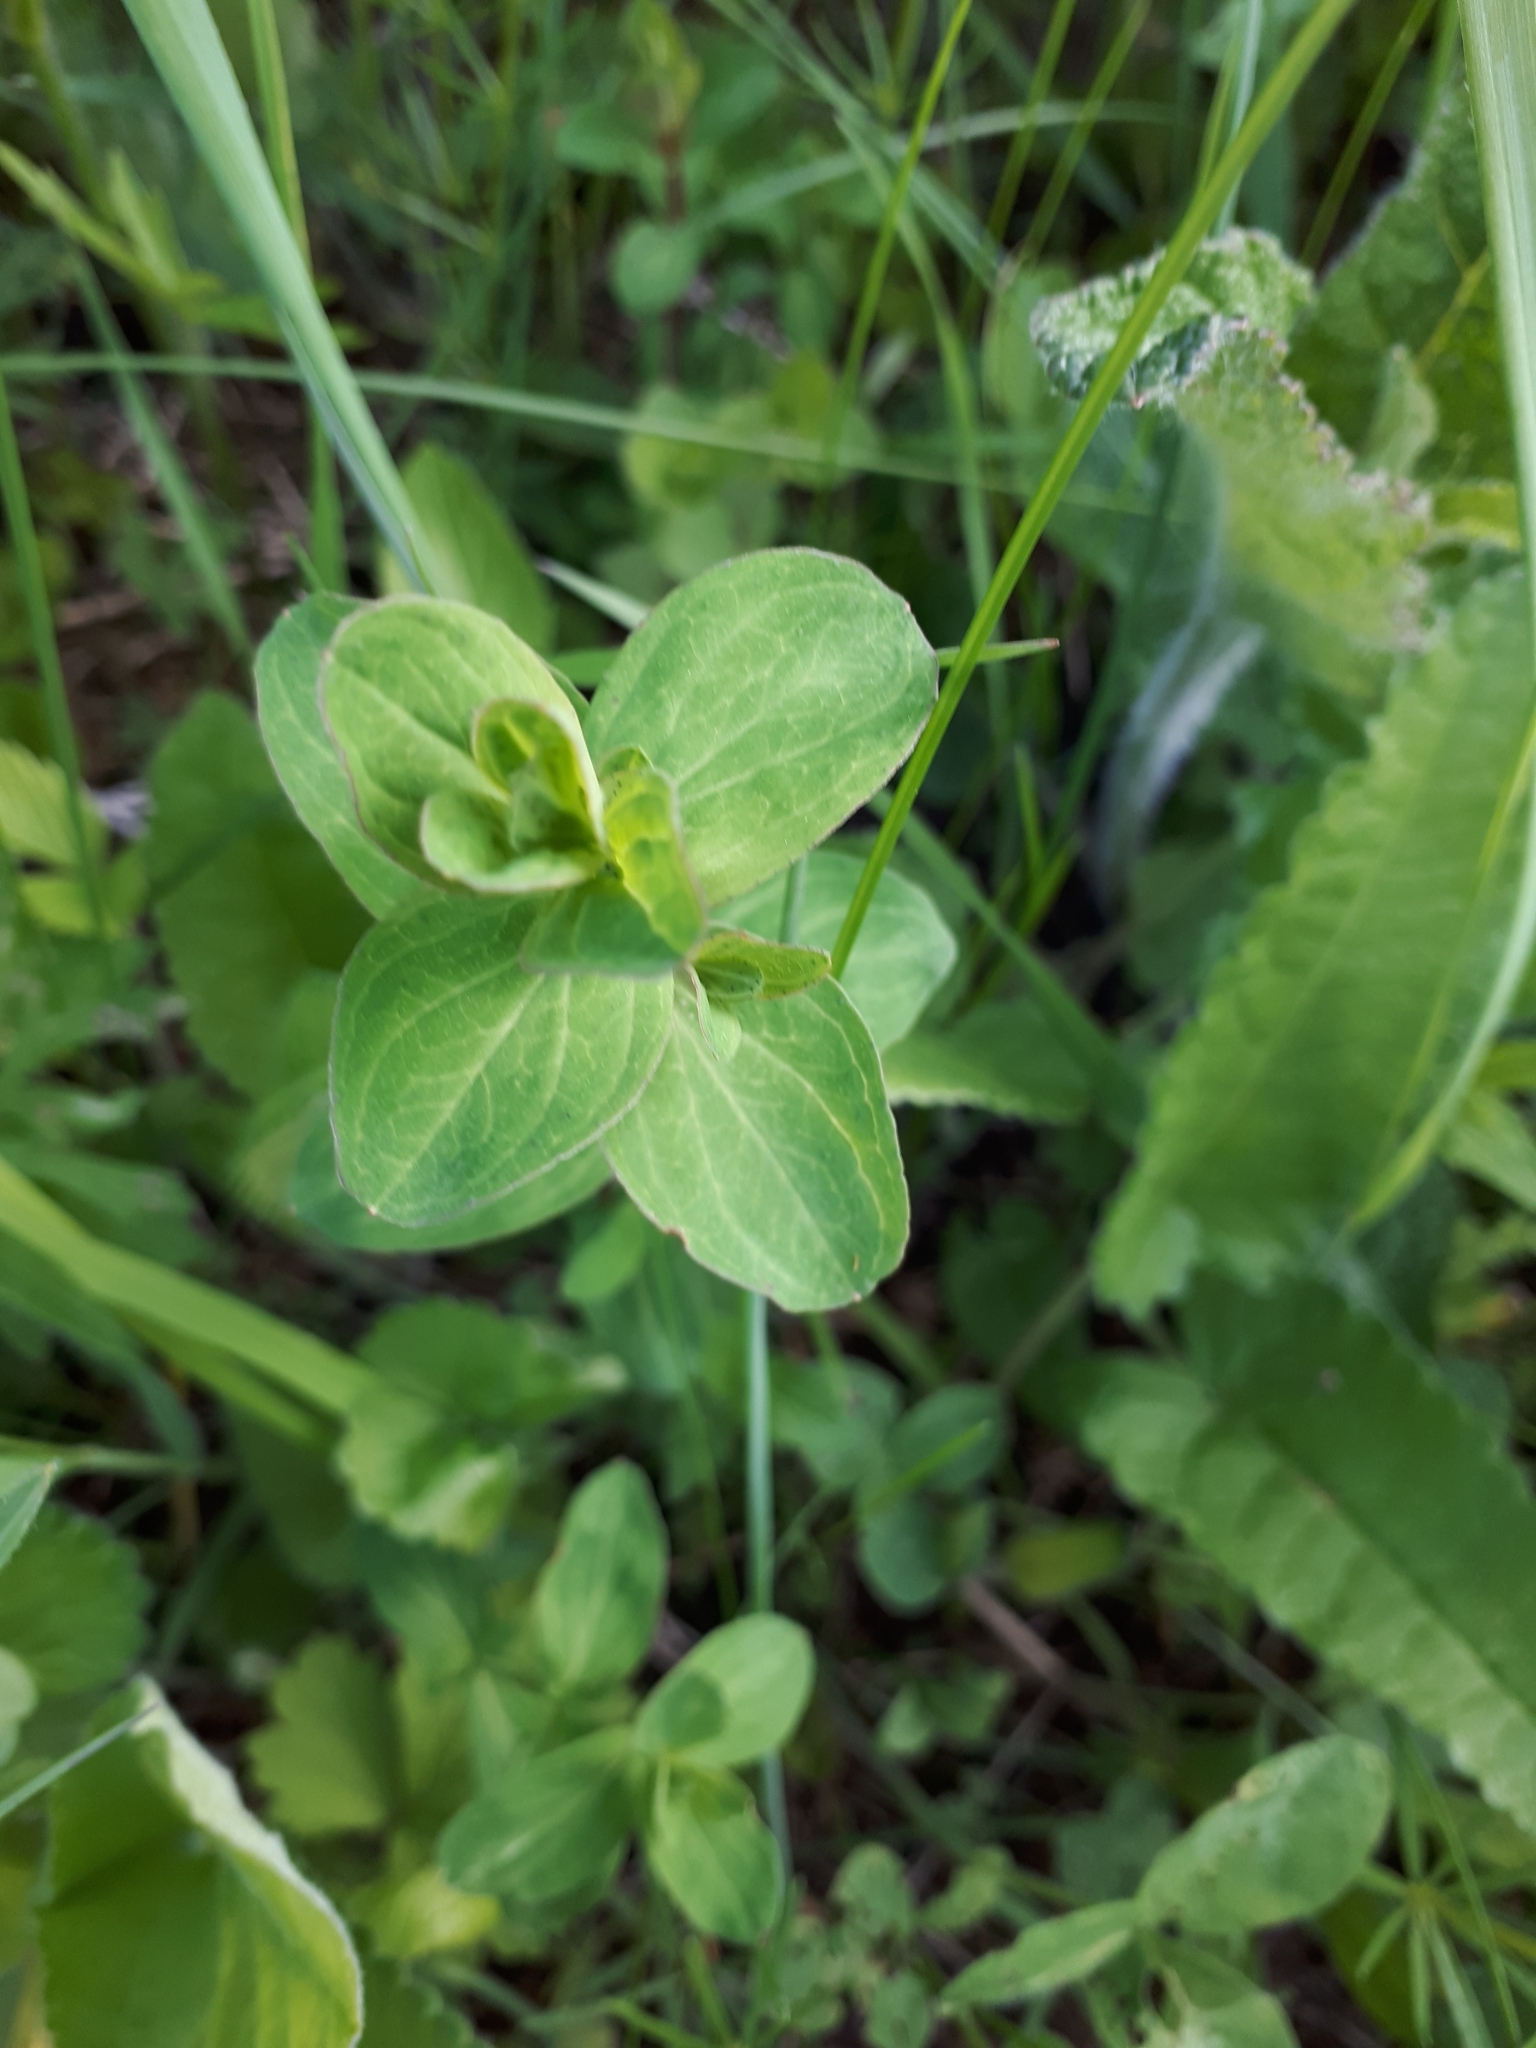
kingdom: Plantae
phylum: Tracheophyta
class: Magnoliopsida
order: Malpighiales
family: Hypericaceae
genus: Hypericum
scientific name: Hypericum perforatum
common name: Common st. johnswort
